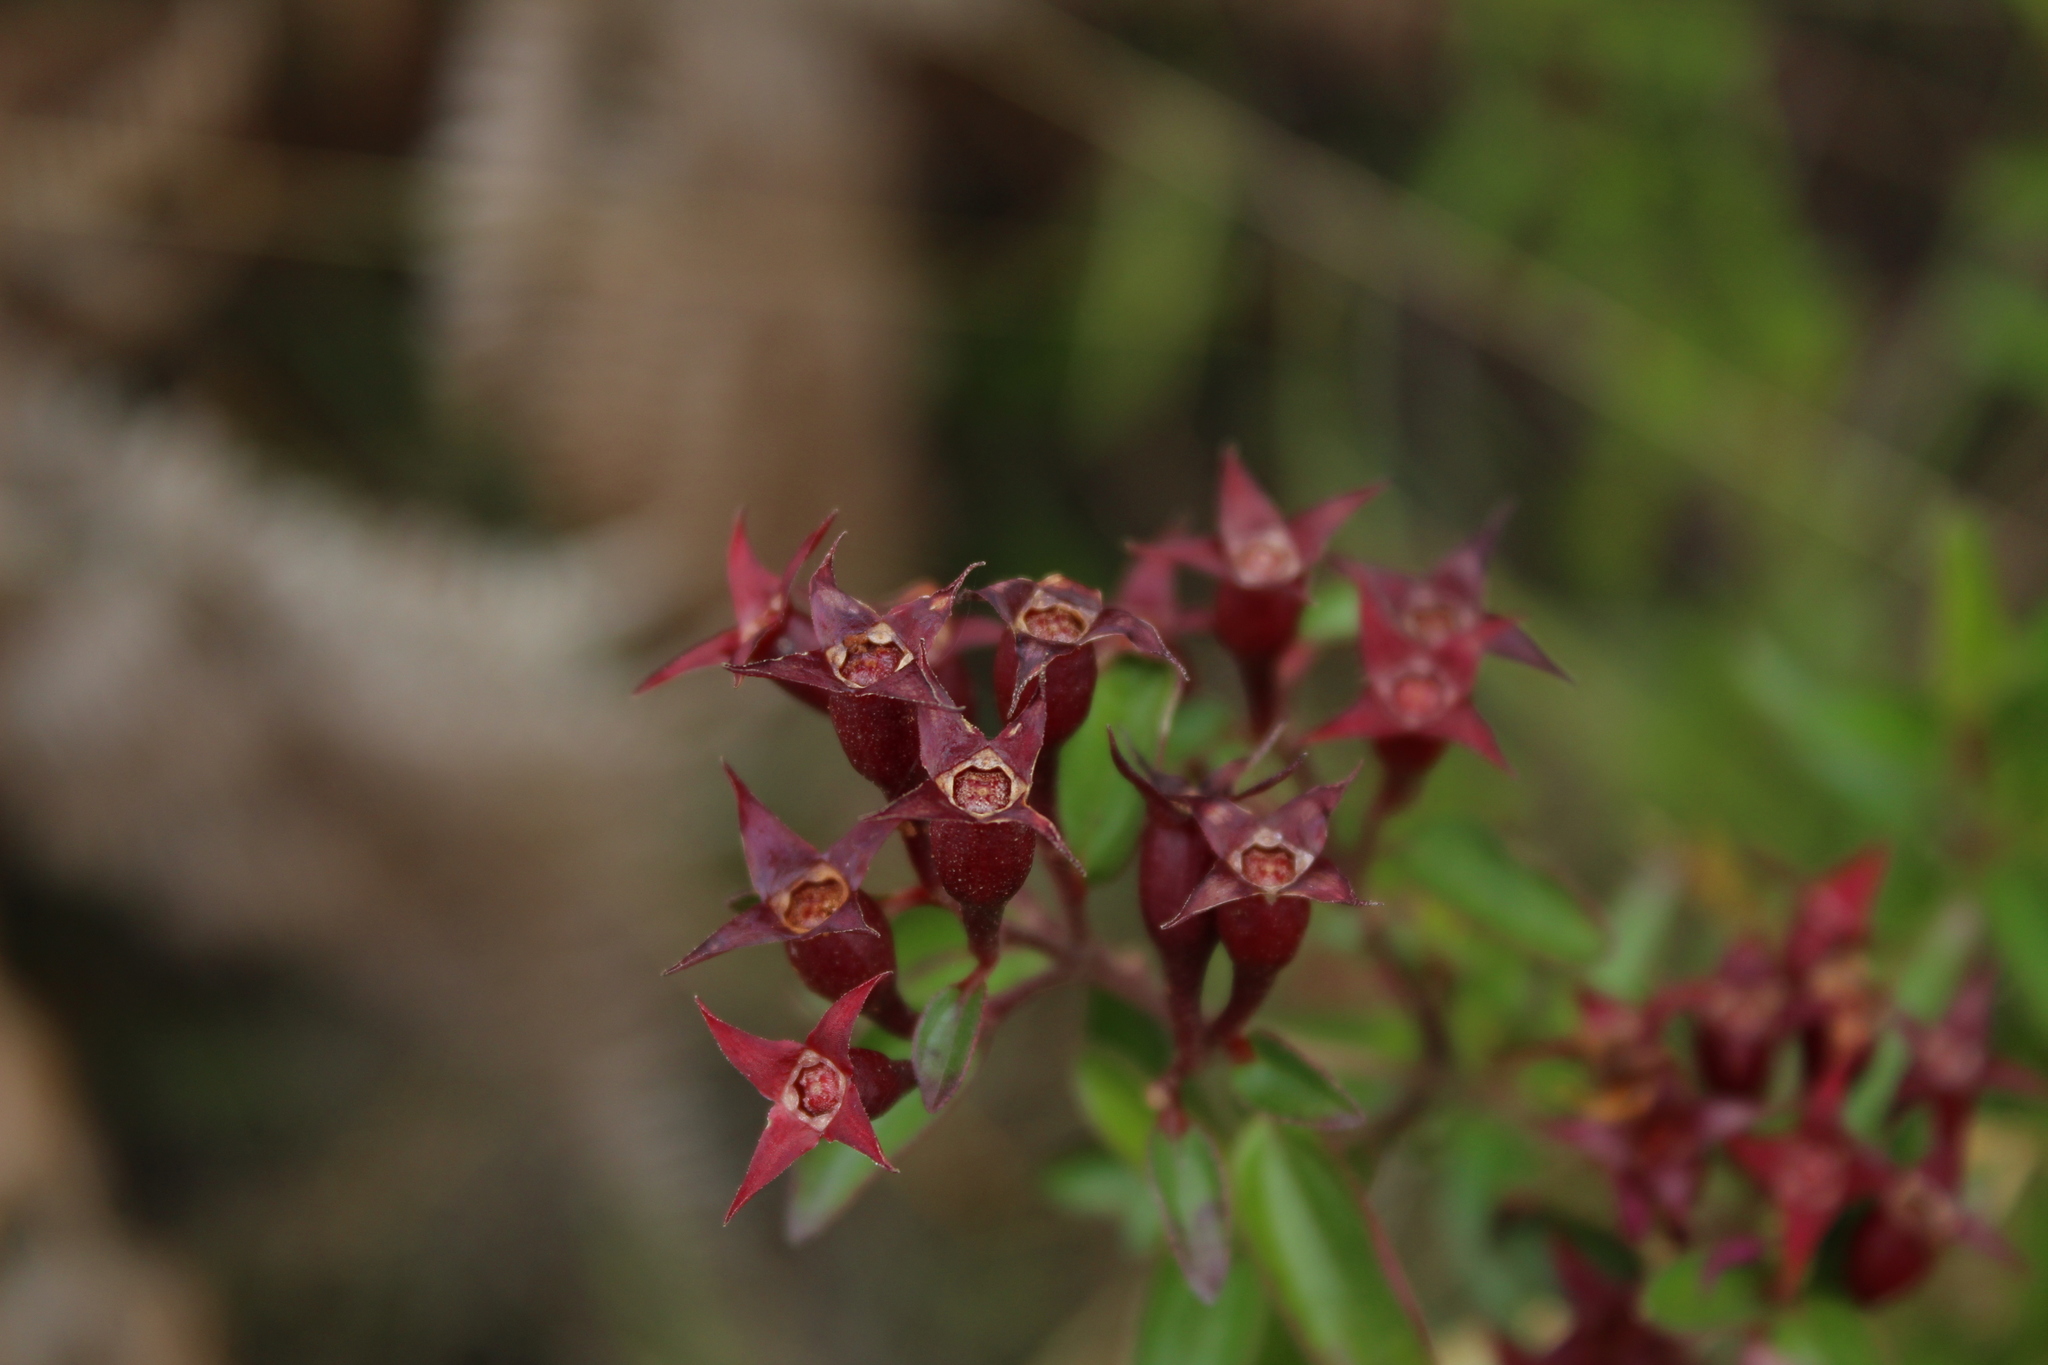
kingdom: Plantae
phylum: Tracheophyta
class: Magnoliopsida
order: Myrtales
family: Melastomataceae
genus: Monochaetum
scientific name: Monochaetum myrtoideum
